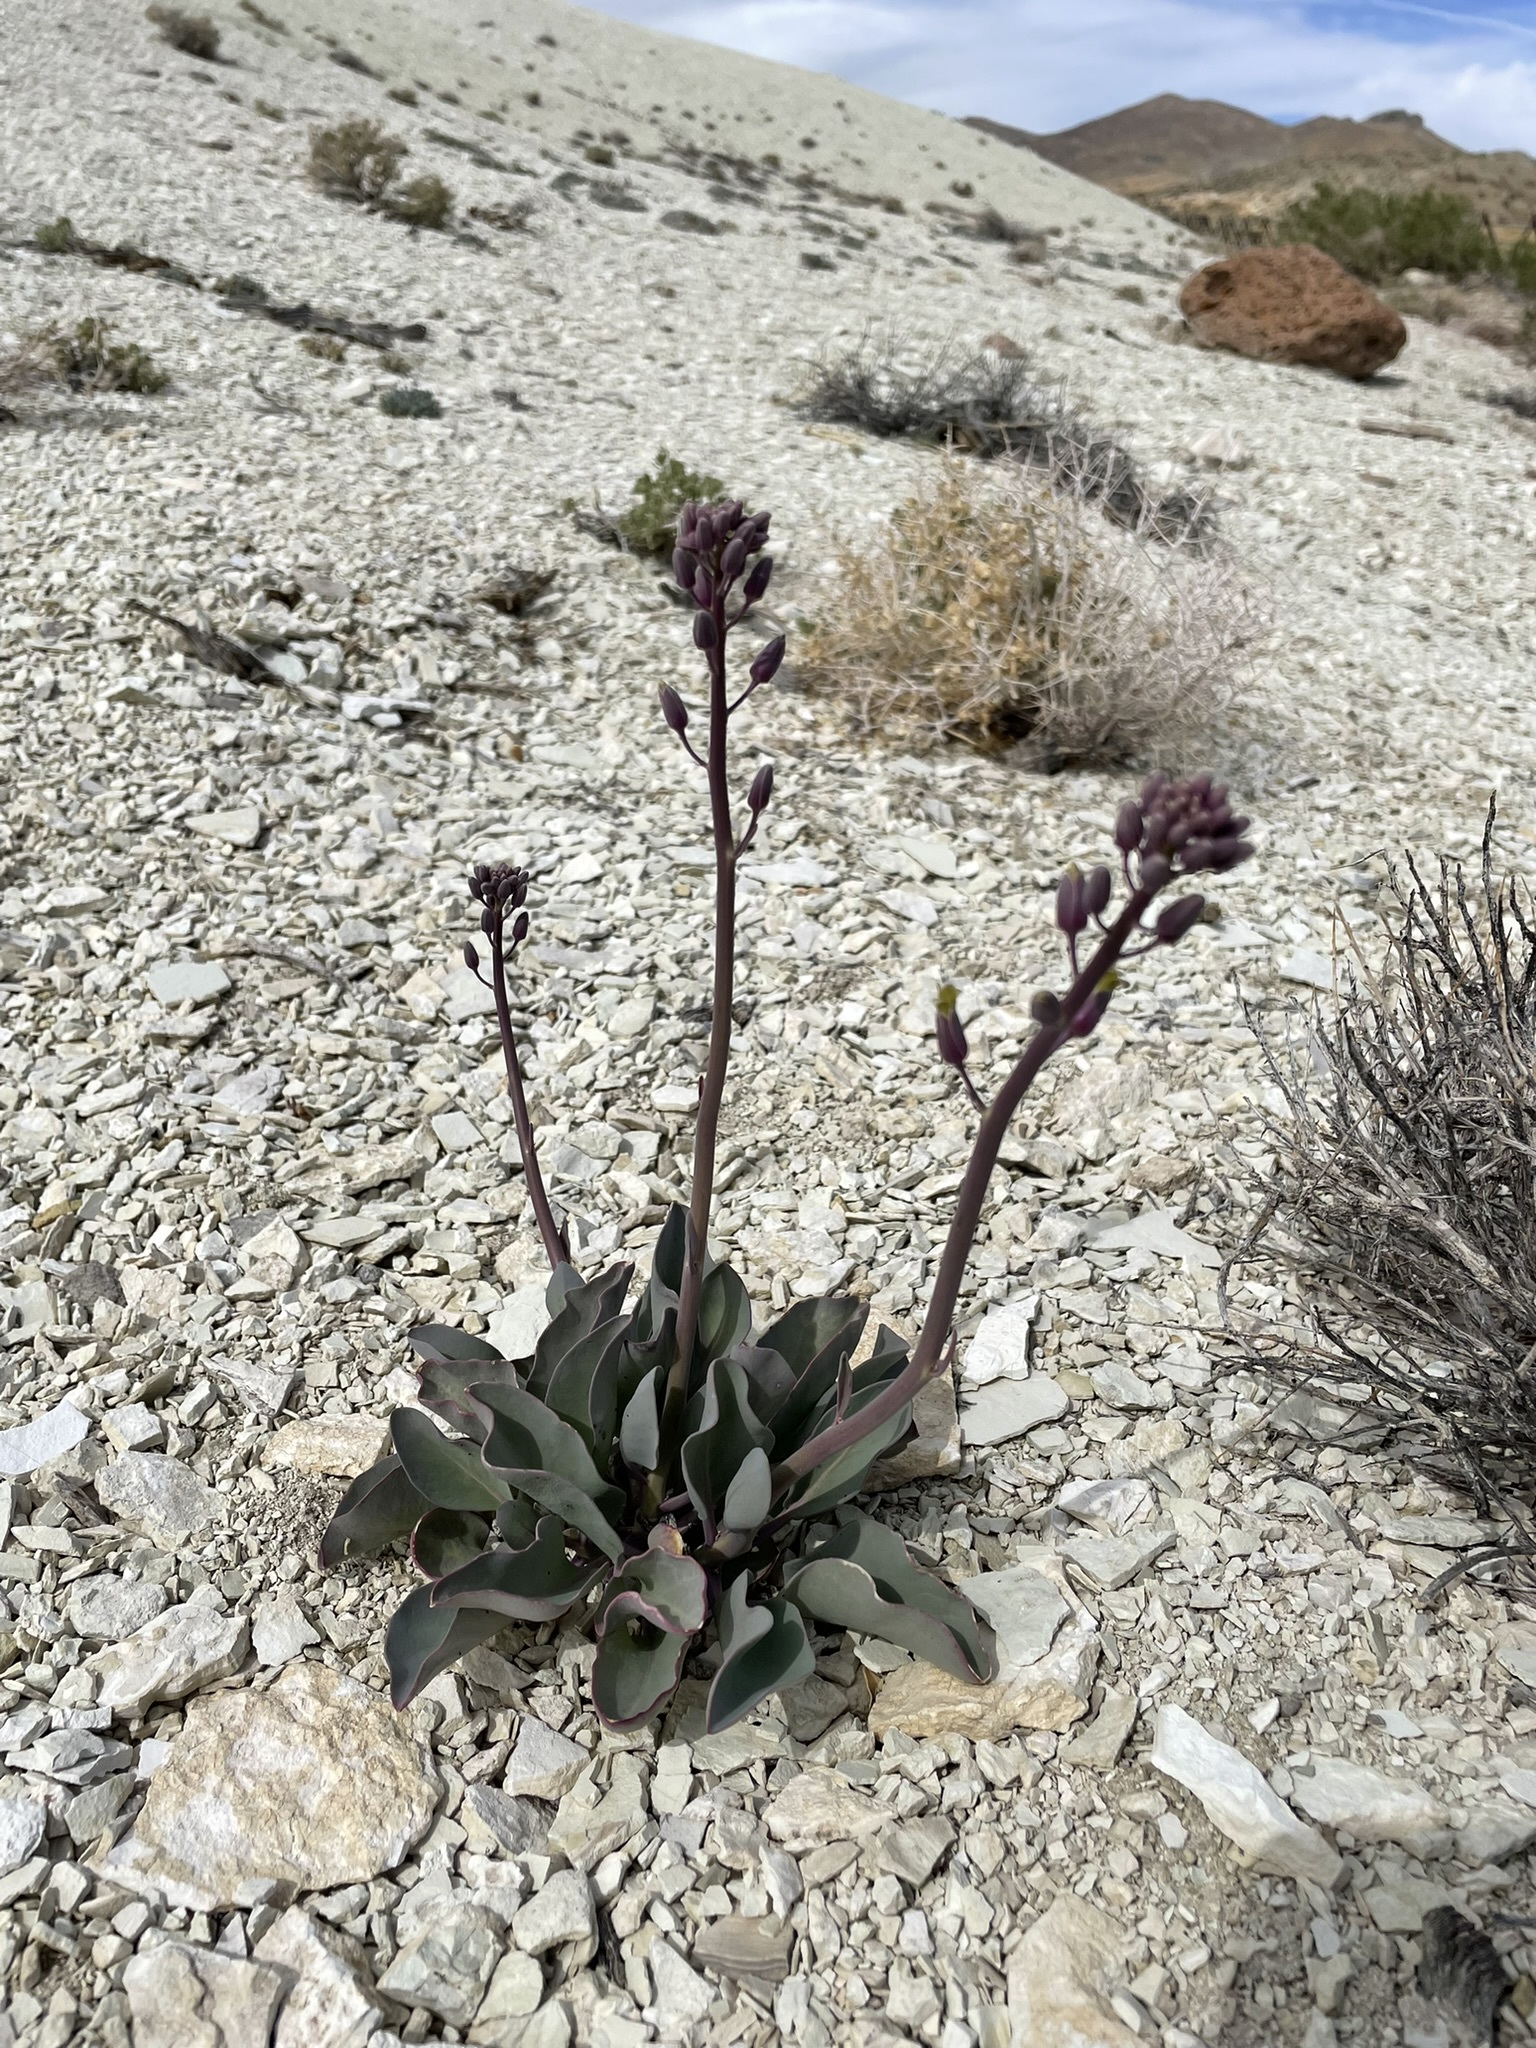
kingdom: Plantae
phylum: Tracheophyta
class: Magnoliopsida
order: Brassicales
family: Brassicaceae
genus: Streptanthus
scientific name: Streptanthus glaucus
